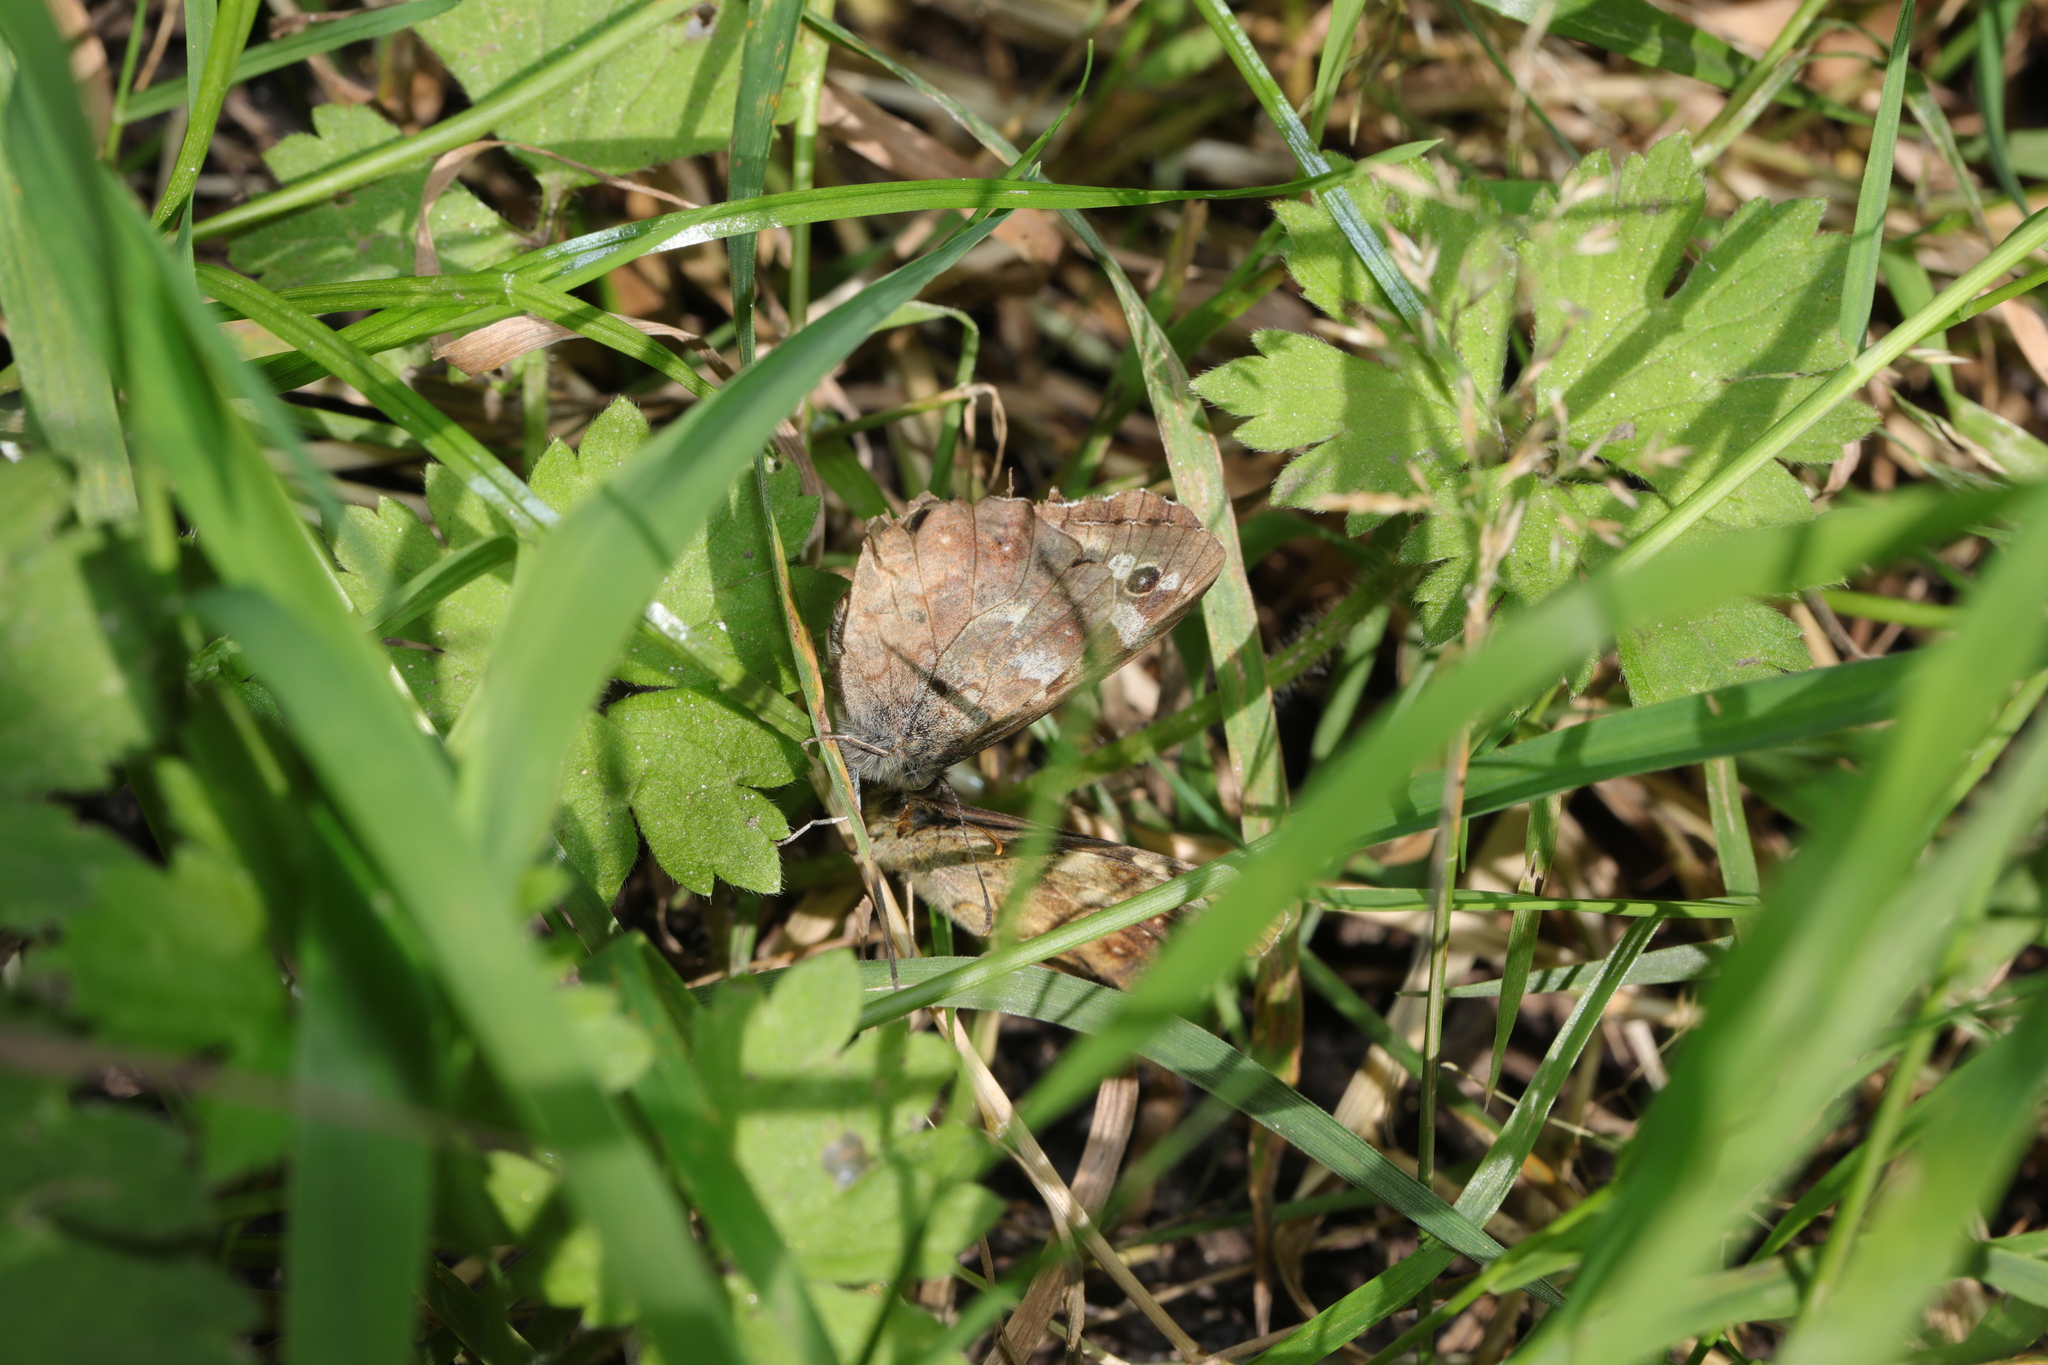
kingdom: Animalia
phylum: Arthropoda
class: Insecta
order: Lepidoptera
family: Nymphalidae
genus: Pararge
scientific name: Pararge aegeria
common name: Speckled wood
